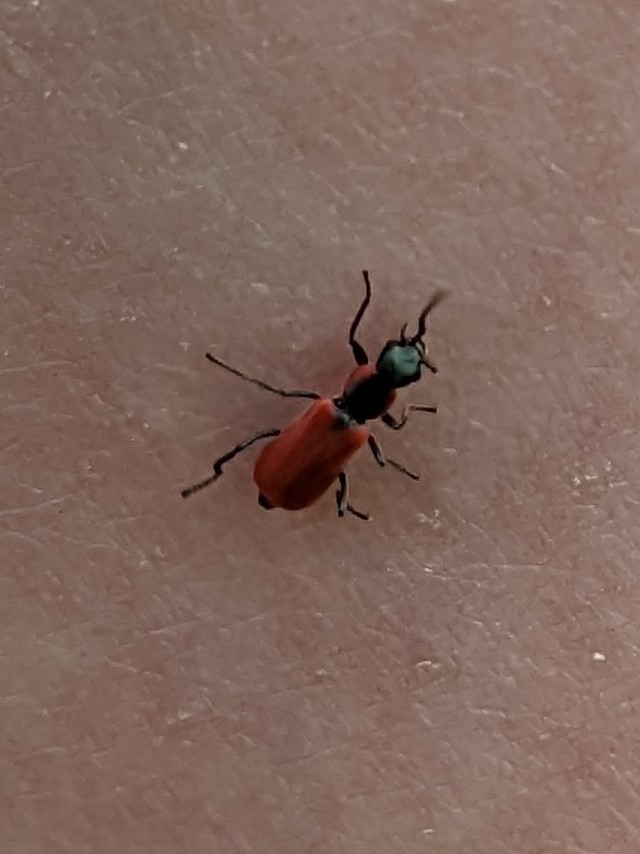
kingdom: Animalia
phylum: Arthropoda
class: Insecta
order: Coleoptera
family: Melyridae
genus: Anthocomus
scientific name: Anthocomus rufus
